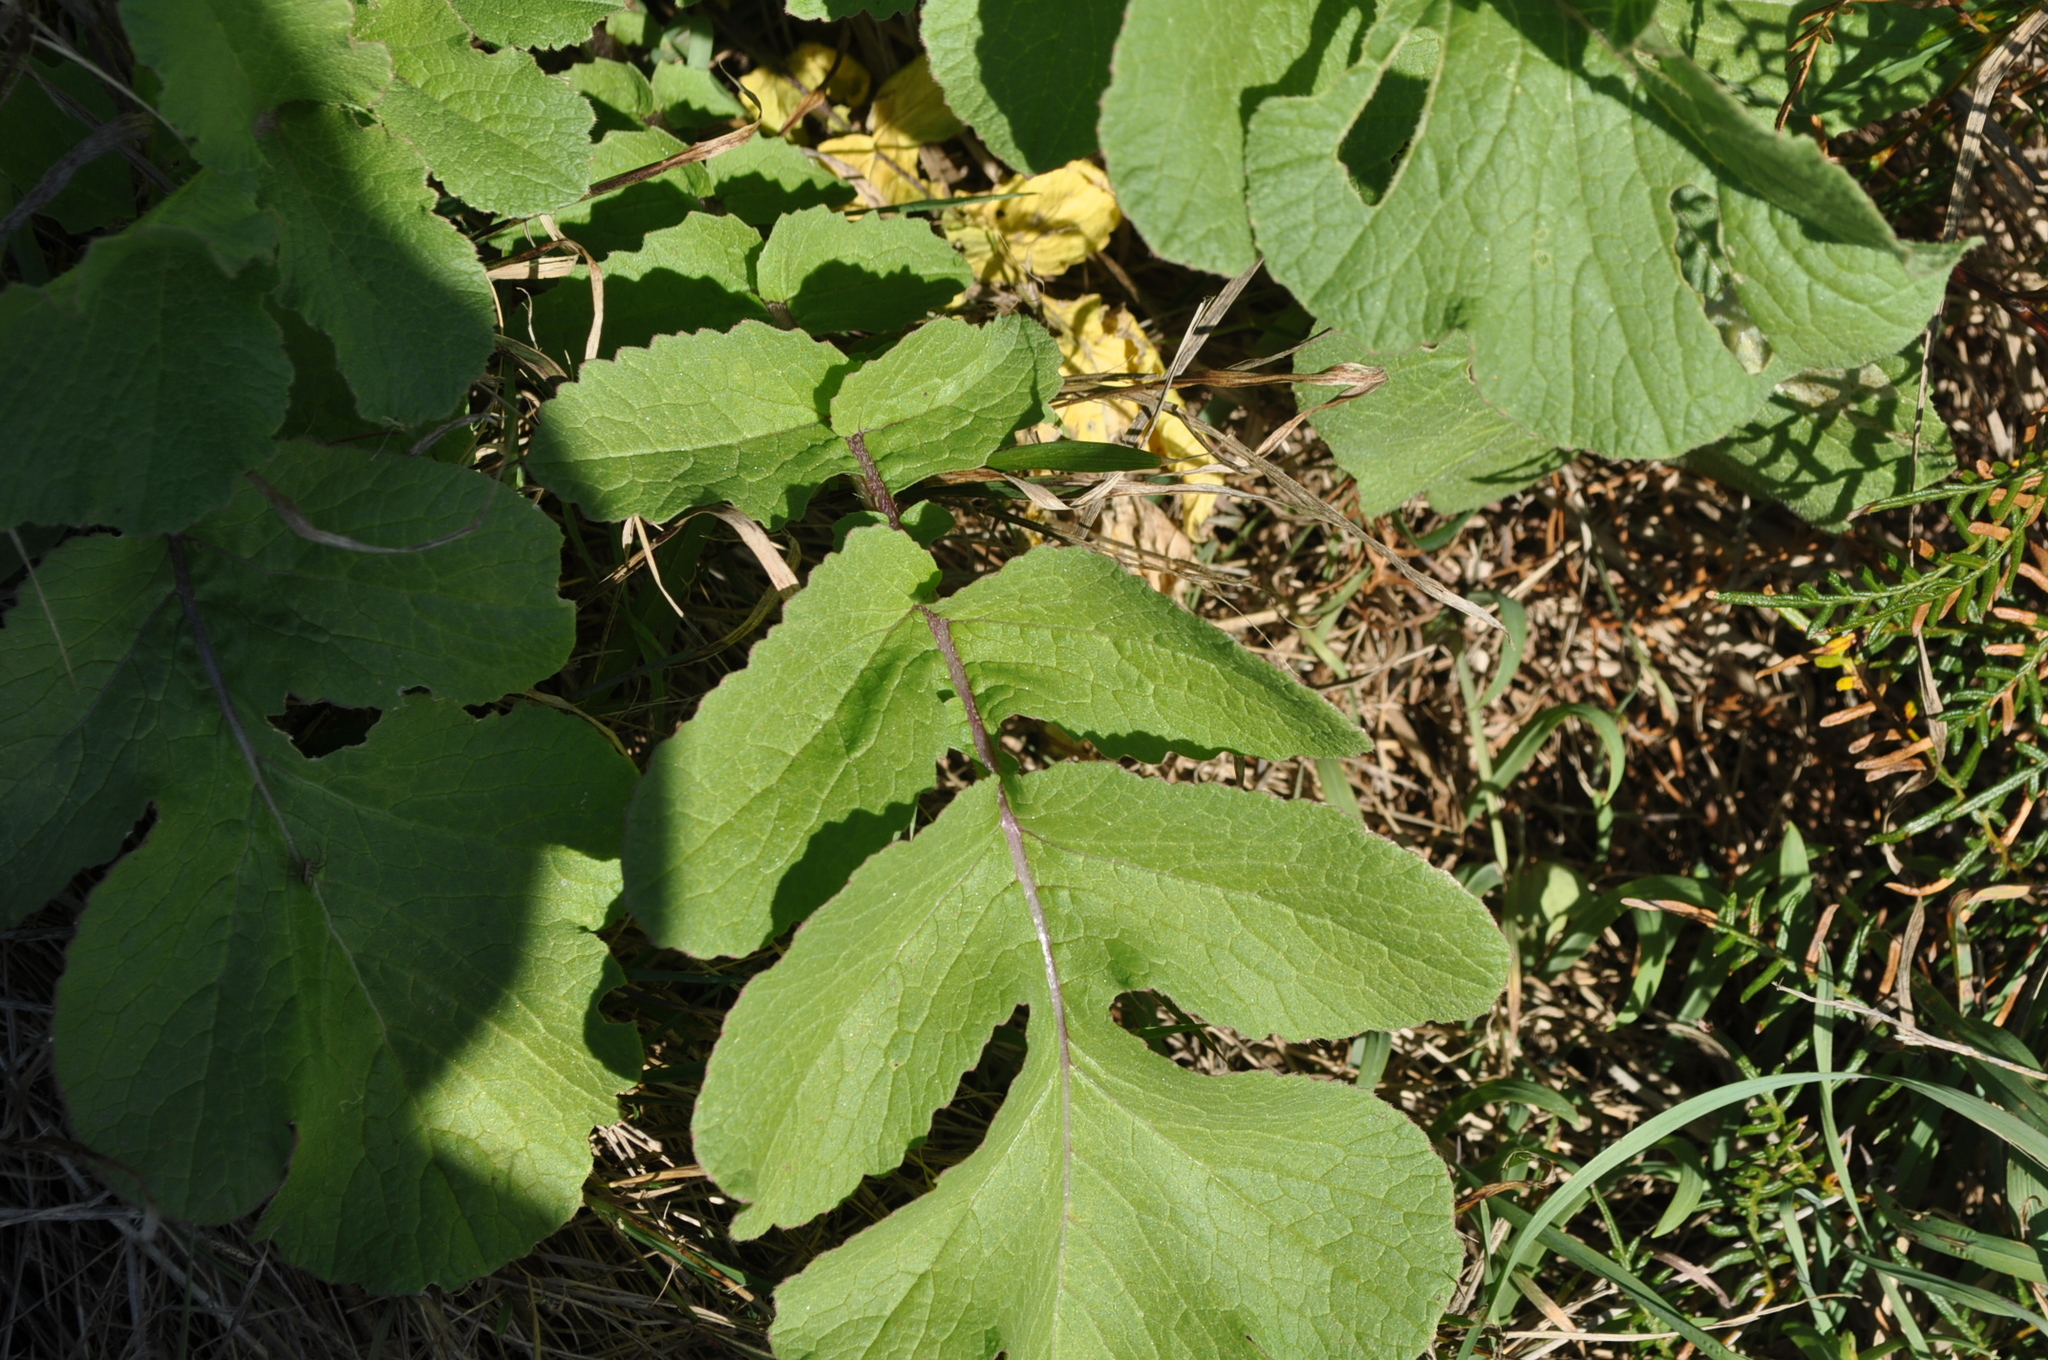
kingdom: Plantae
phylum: Tracheophyta
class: Magnoliopsida
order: Brassicales
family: Brassicaceae
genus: Raphanus
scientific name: Raphanus raphanistrum
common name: Wild radish
